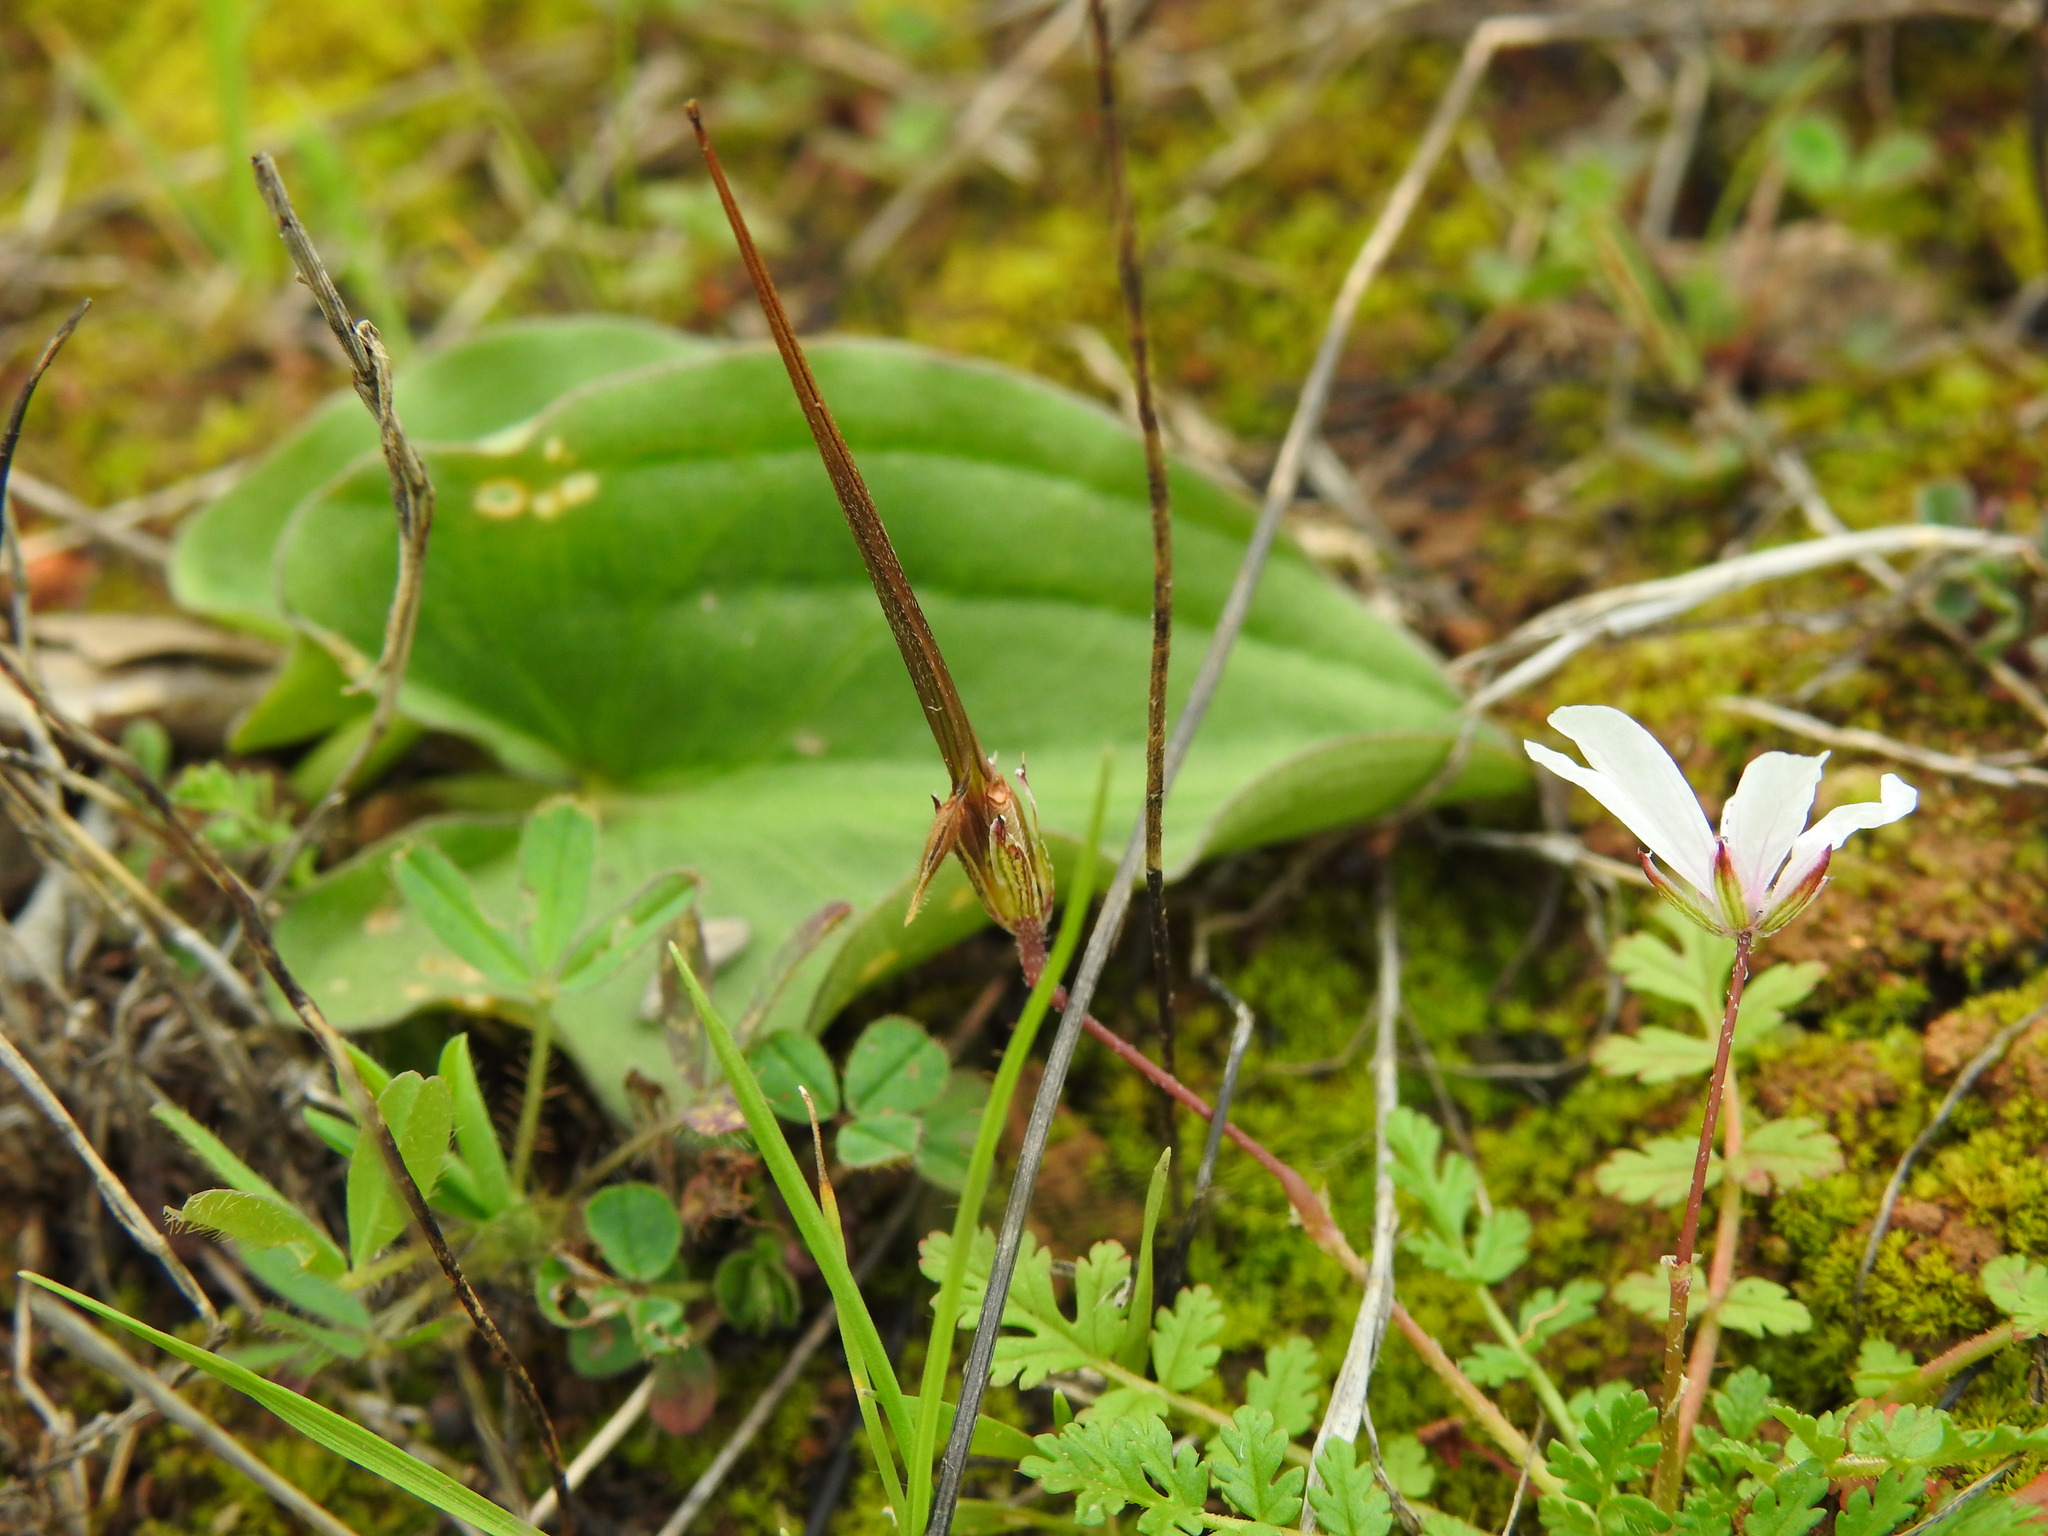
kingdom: Plantae
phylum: Tracheophyta
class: Magnoliopsida
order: Geraniales
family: Geraniaceae
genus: Erodium
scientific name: Erodium cicutarium
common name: Common stork's-bill
